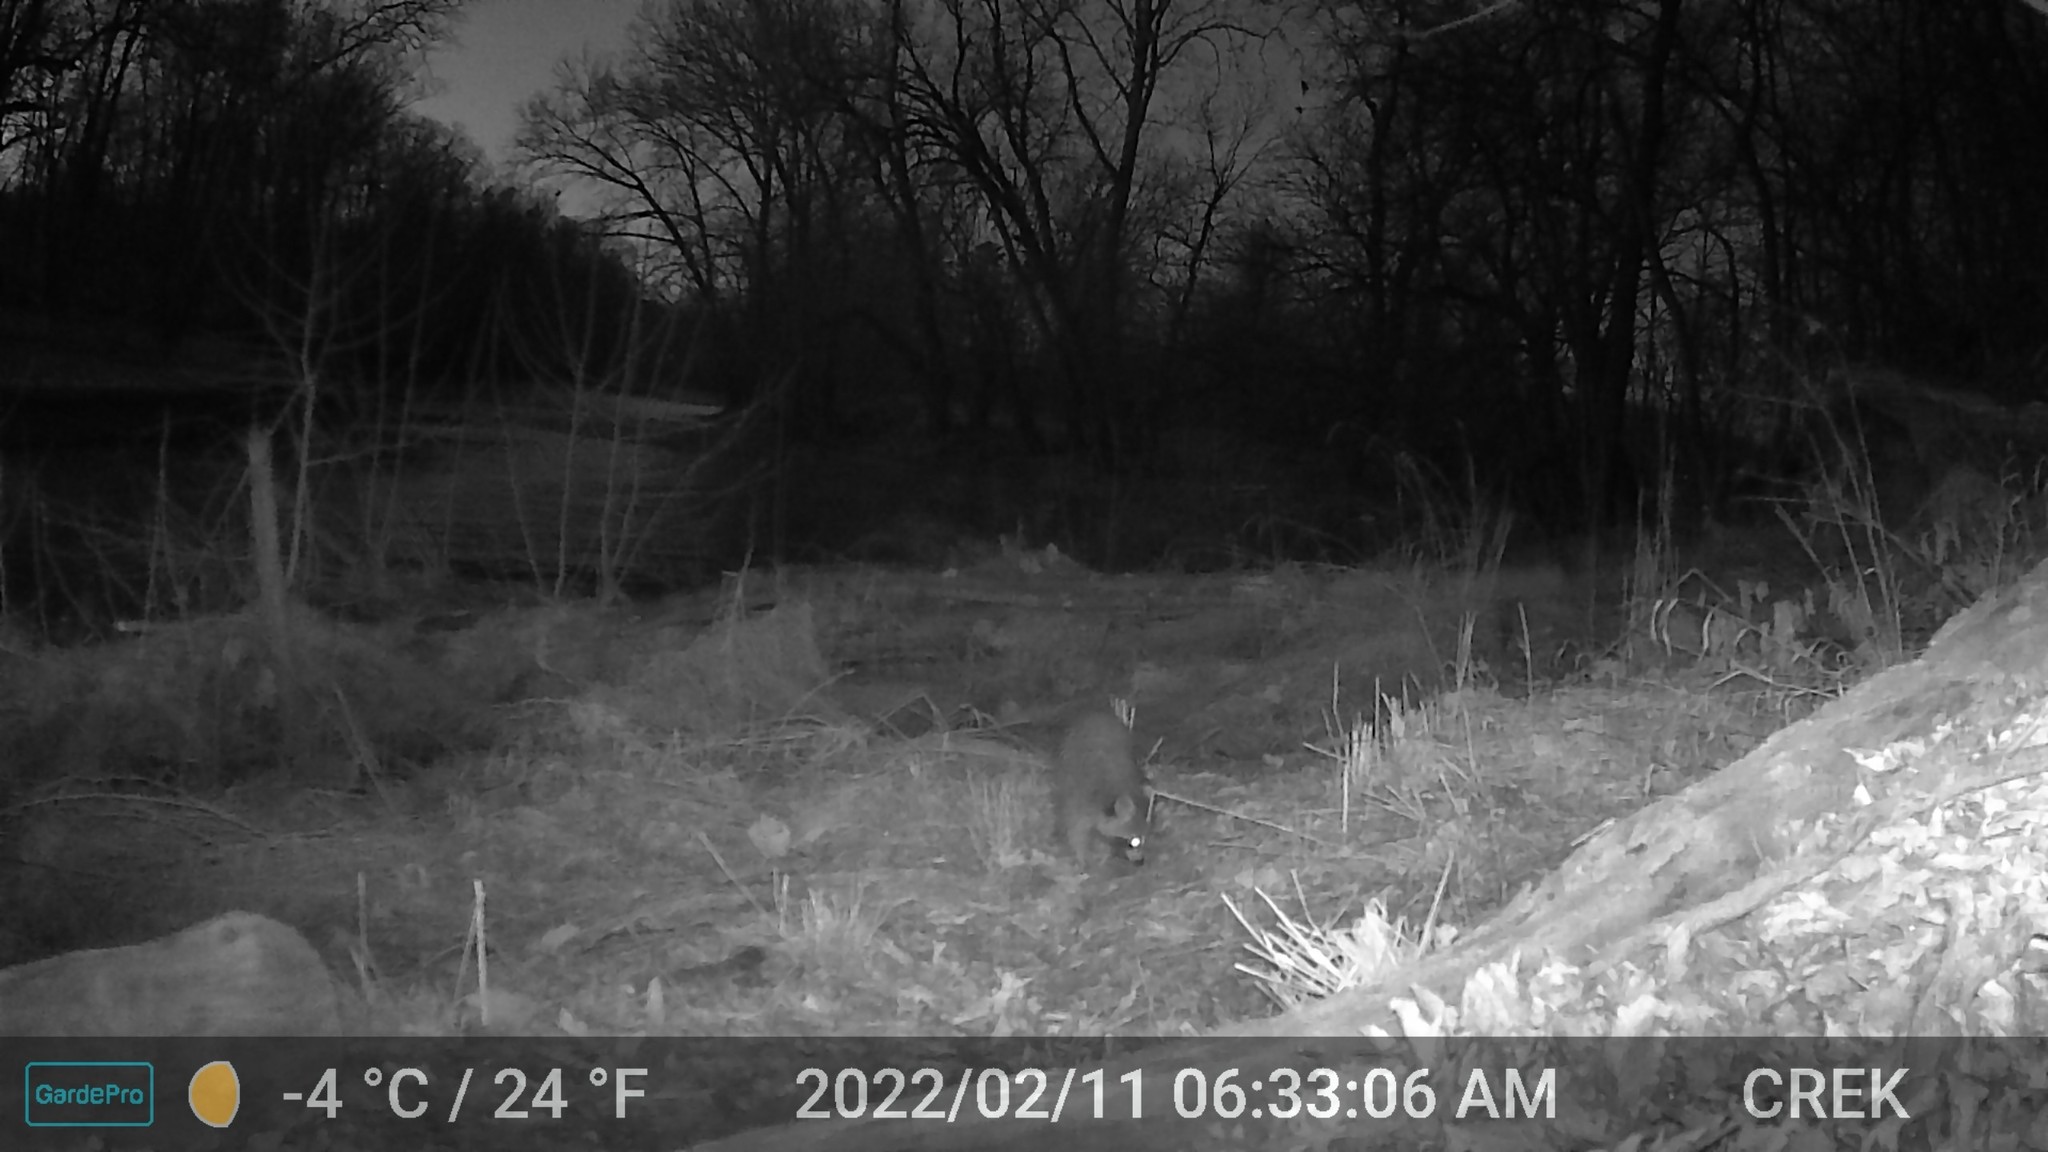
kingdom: Animalia
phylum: Chordata
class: Mammalia
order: Carnivora
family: Procyonidae
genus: Procyon
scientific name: Procyon lotor
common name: Raccoon
